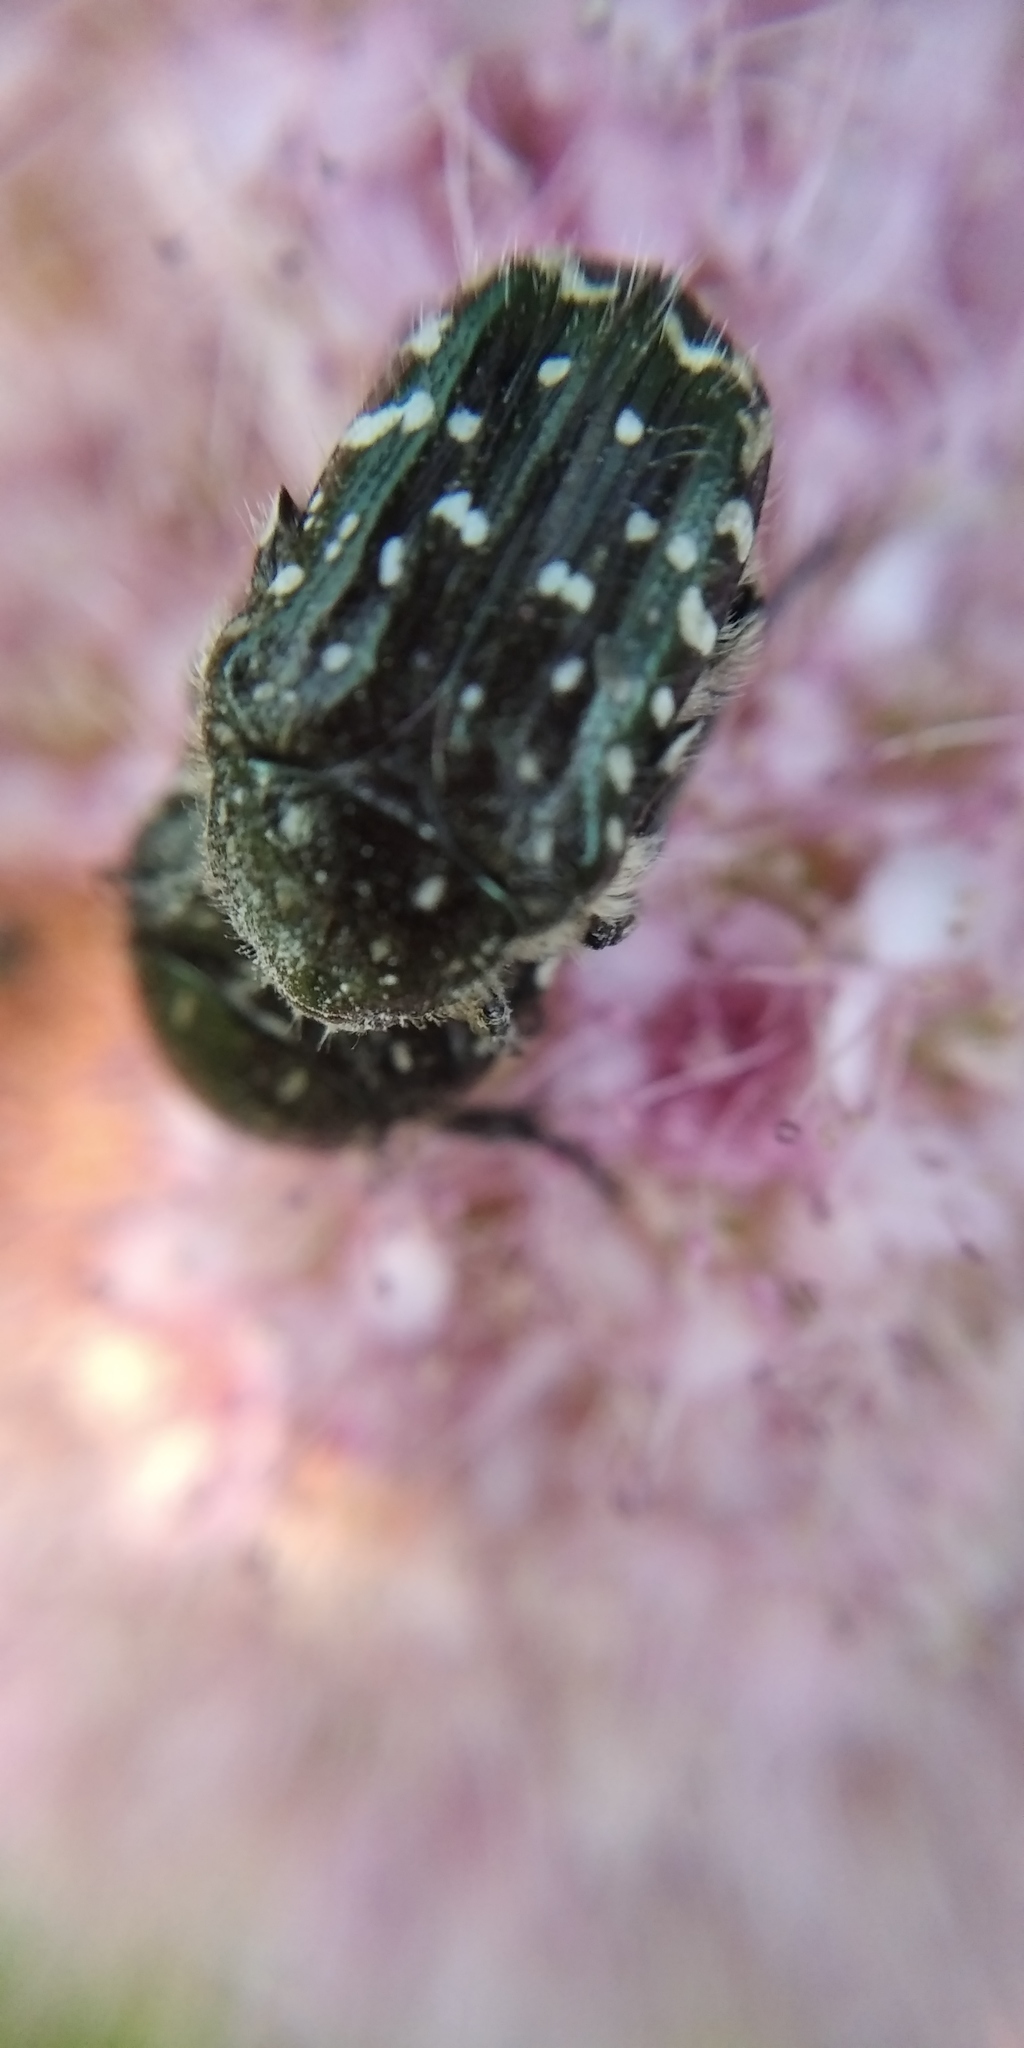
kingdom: Animalia
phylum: Arthropoda
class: Insecta
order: Coleoptera
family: Scarabaeidae
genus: Oxythyrea
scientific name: Oxythyrea funesta
